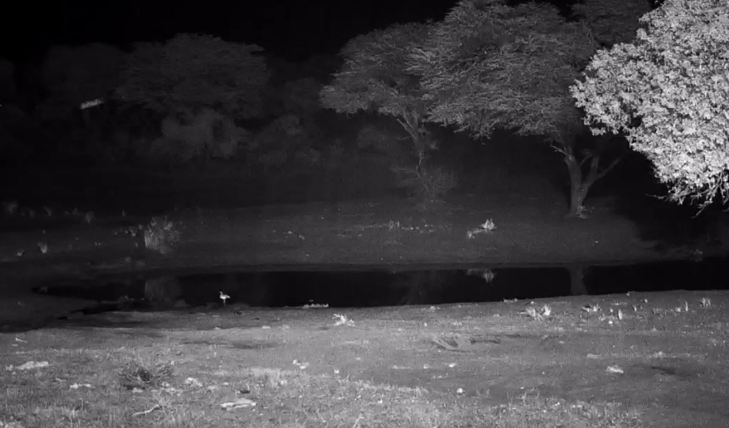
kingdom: Animalia
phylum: Chordata
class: Aves
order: Anseriformes
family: Anatidae
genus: Alopochen
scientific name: Alopochen aegyptiaca
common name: Egyptian goose
